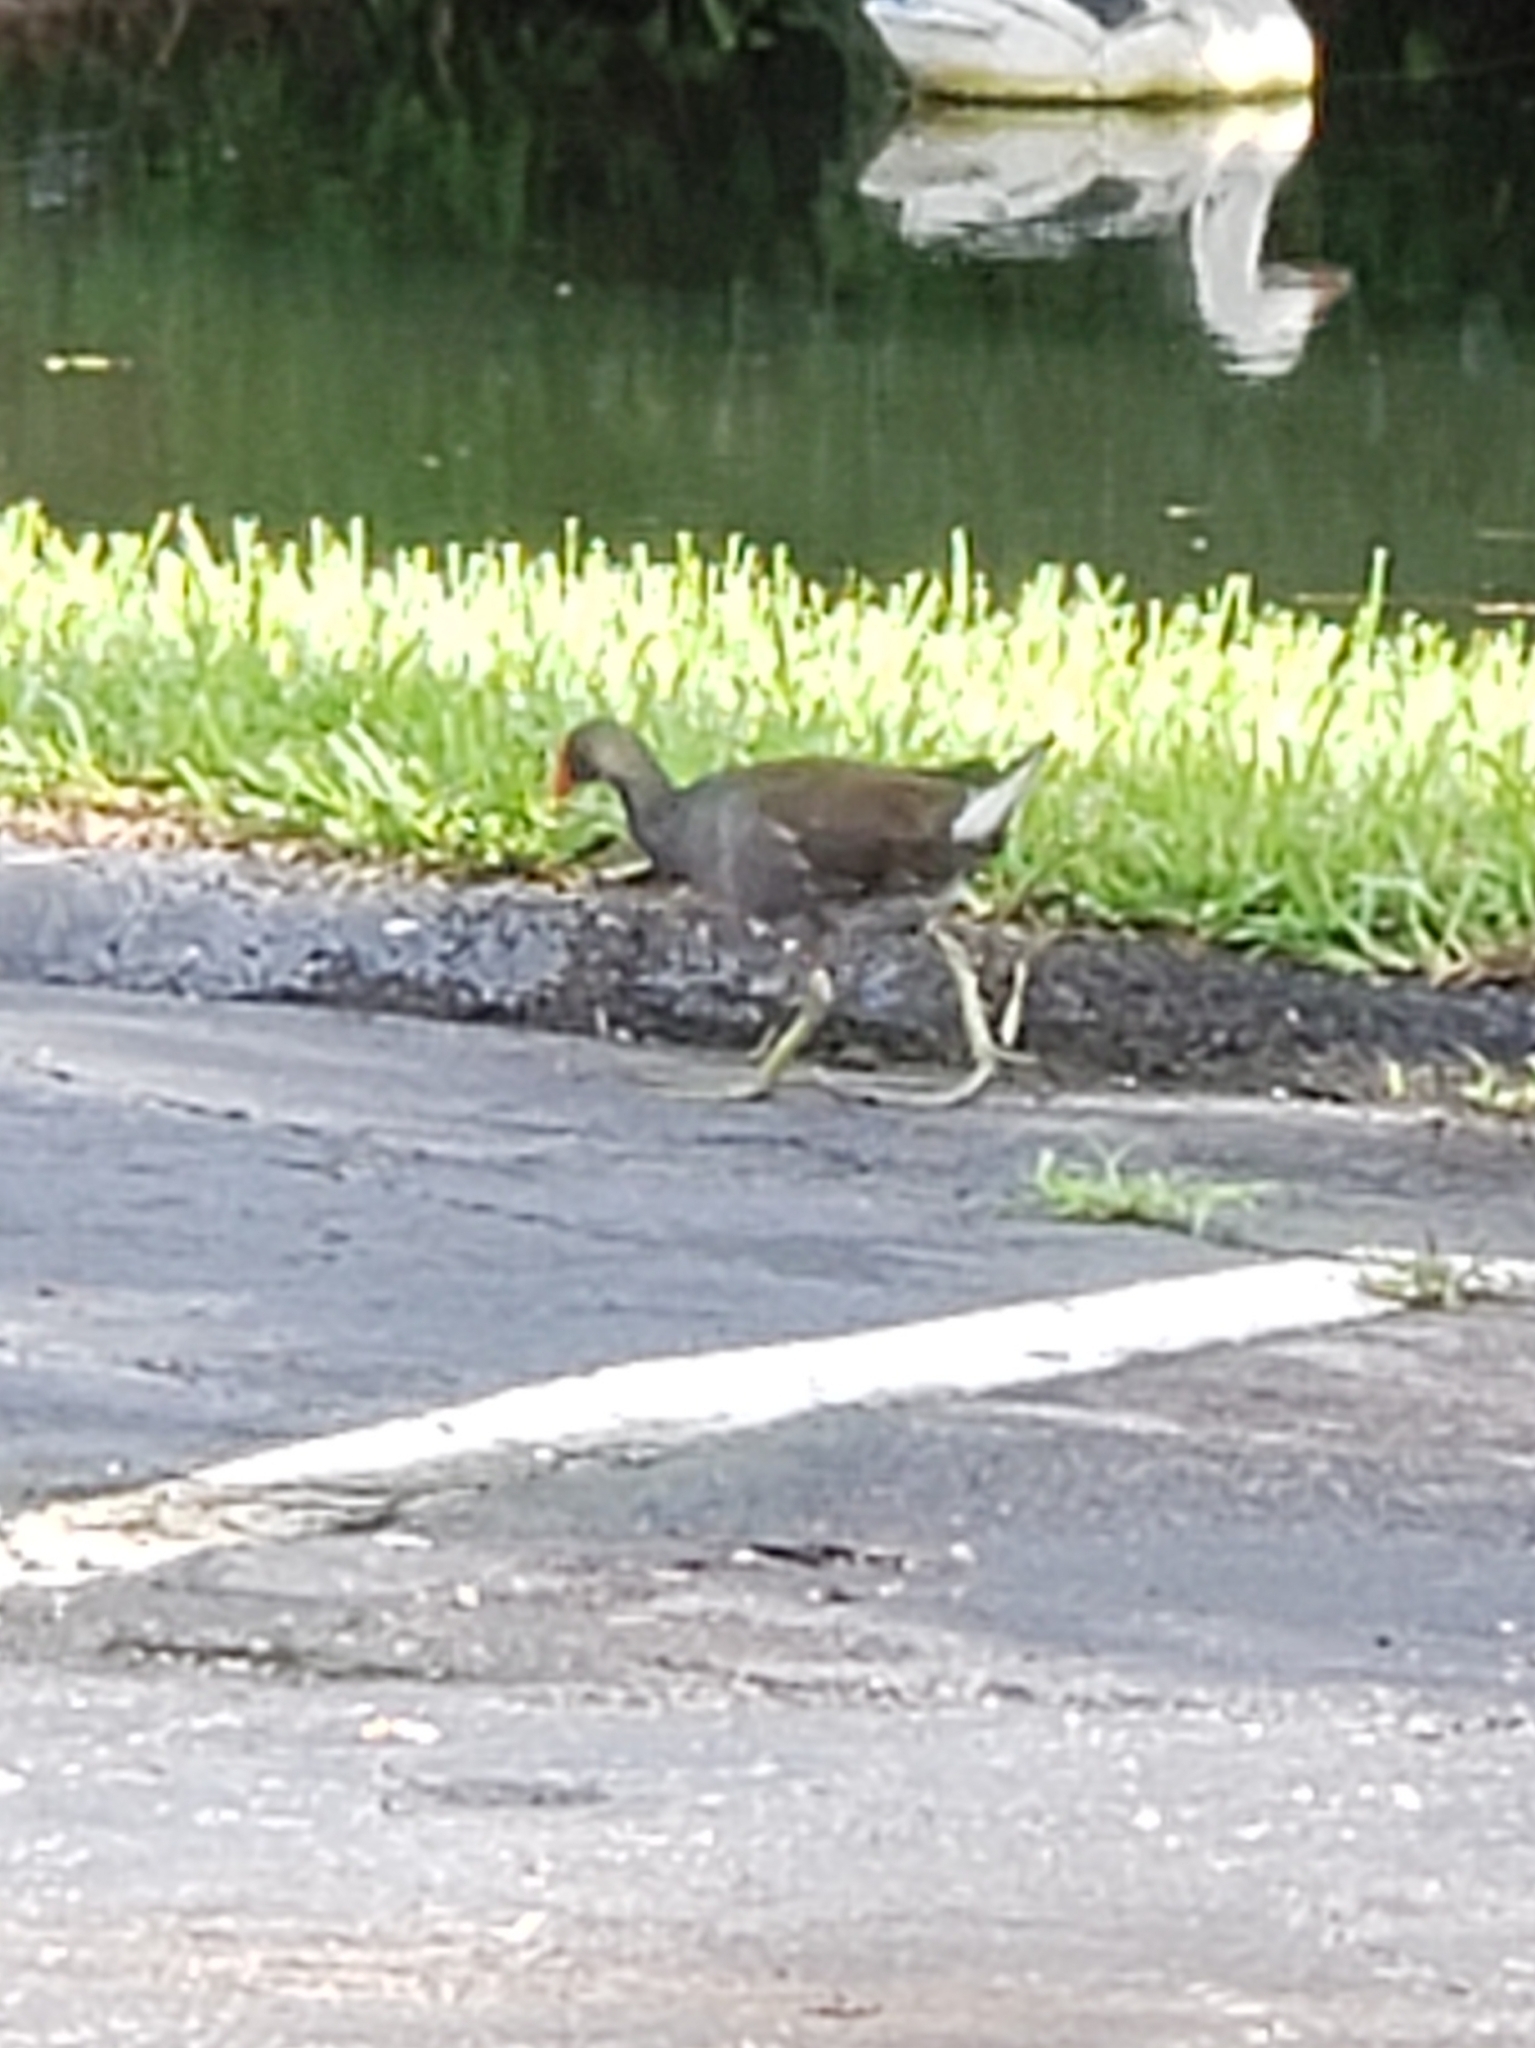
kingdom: Animalia
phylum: Chordata
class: Aves
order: Gruiformes
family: Rallidae
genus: Gallinula
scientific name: Gallinula chloropus
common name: Common moorhen
